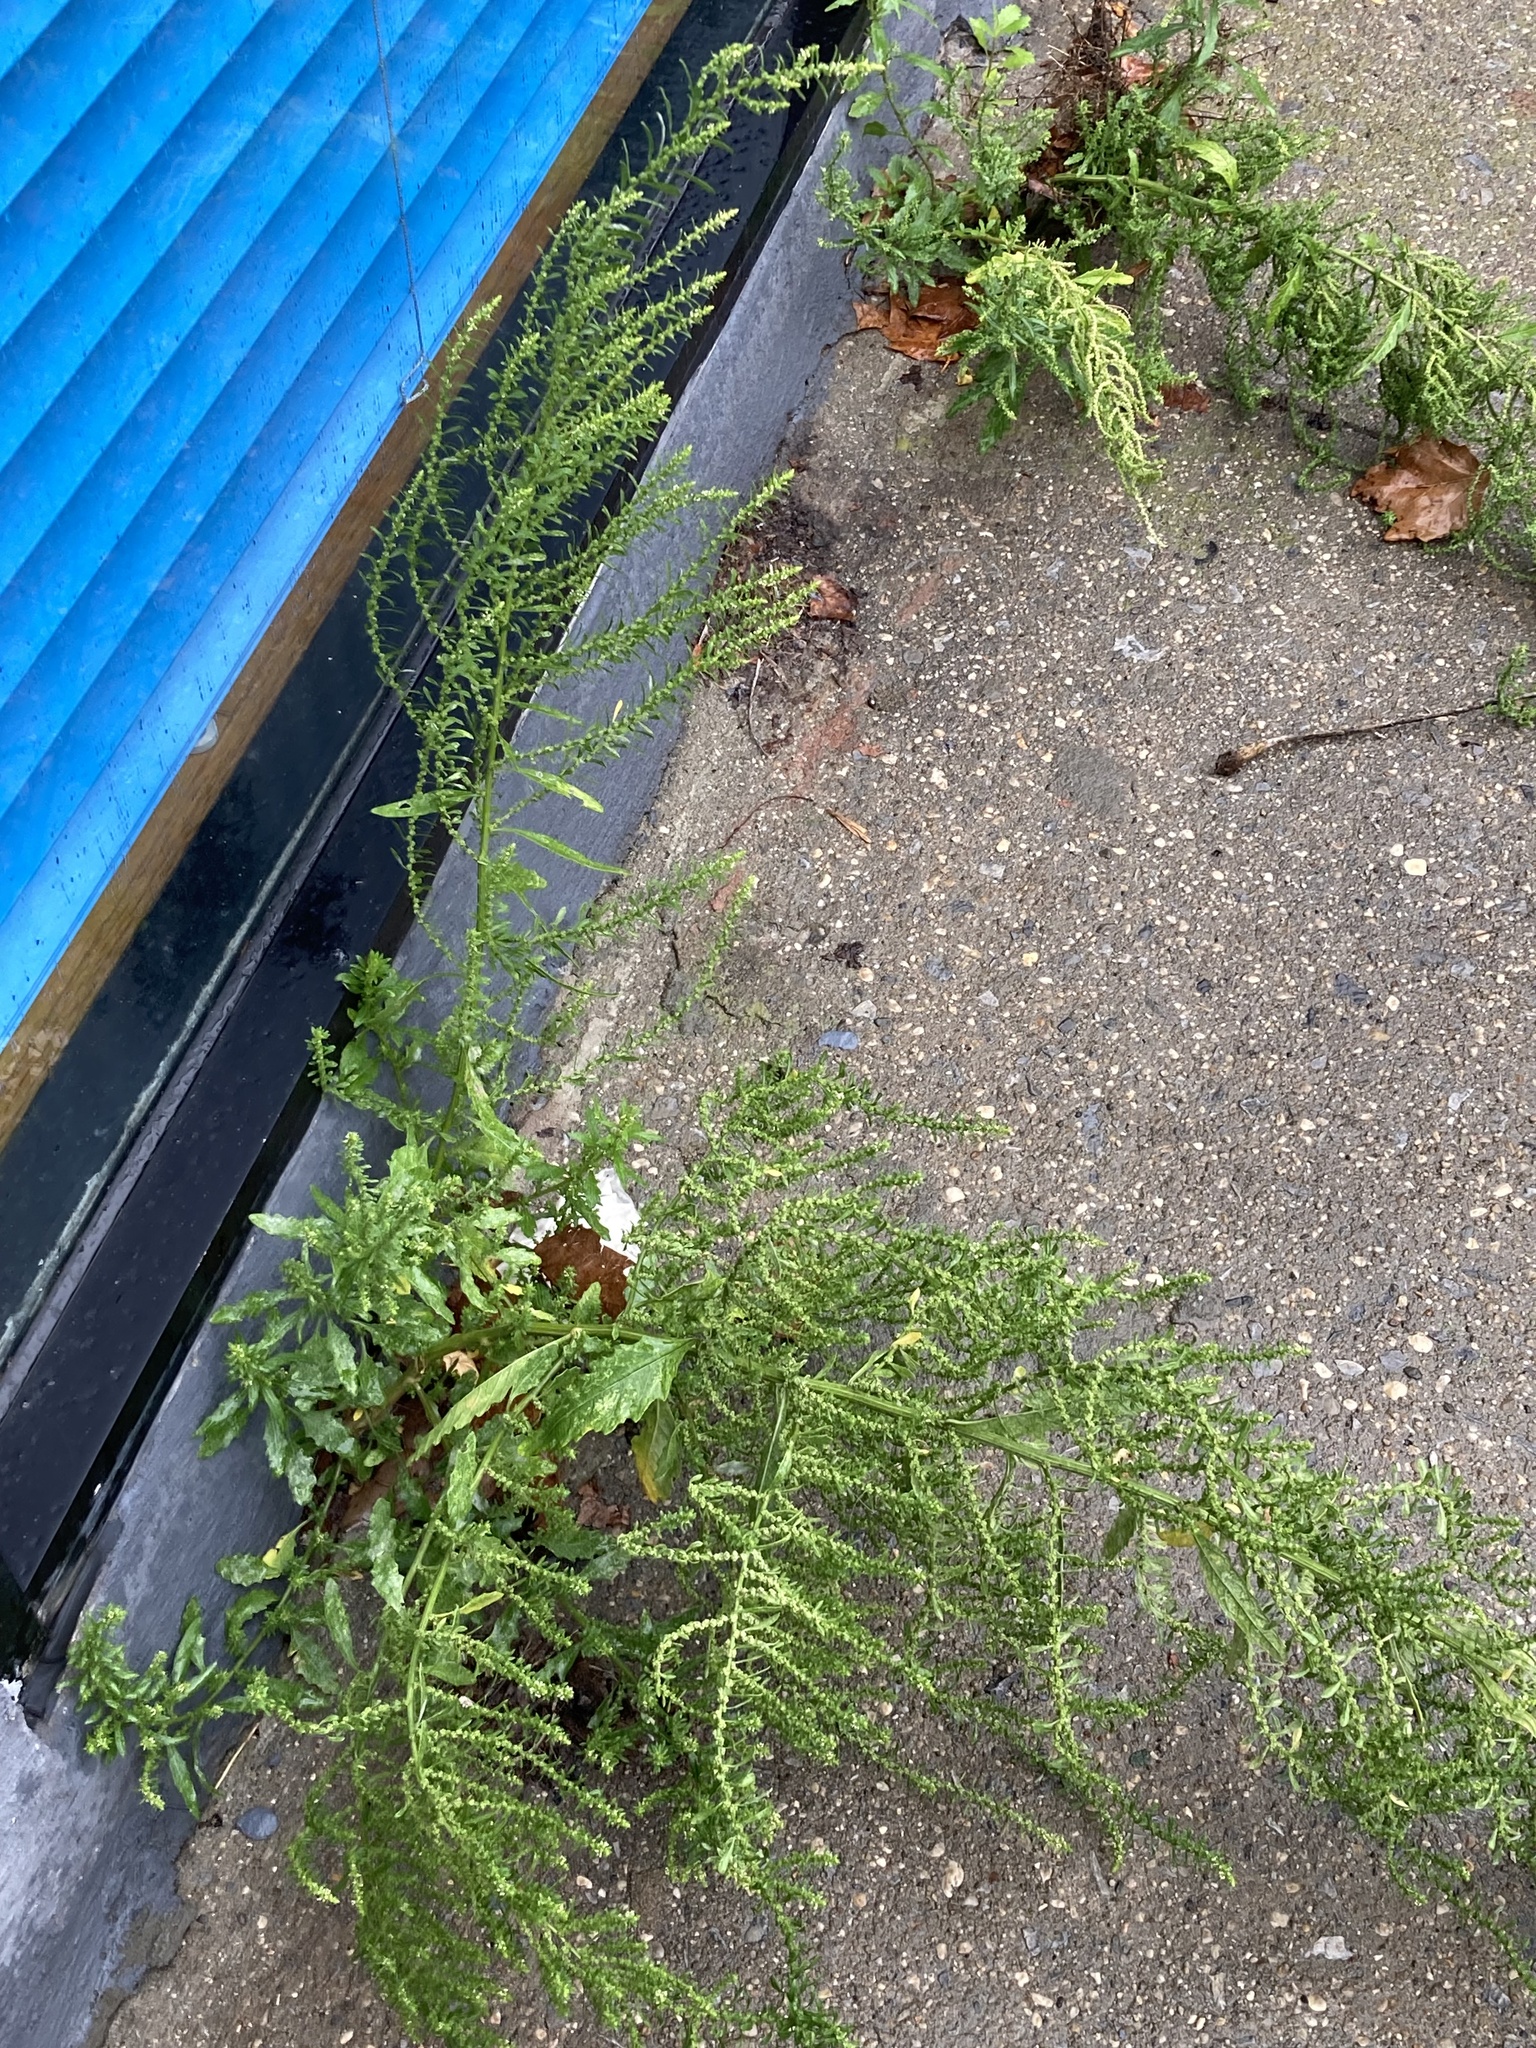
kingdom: Plantae
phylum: Tracheophyta
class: Magnoliopsida
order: Caryophyllales
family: Amaranthaceae
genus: Dysphania
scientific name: Dysphania ambrosioides
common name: Wormseed
